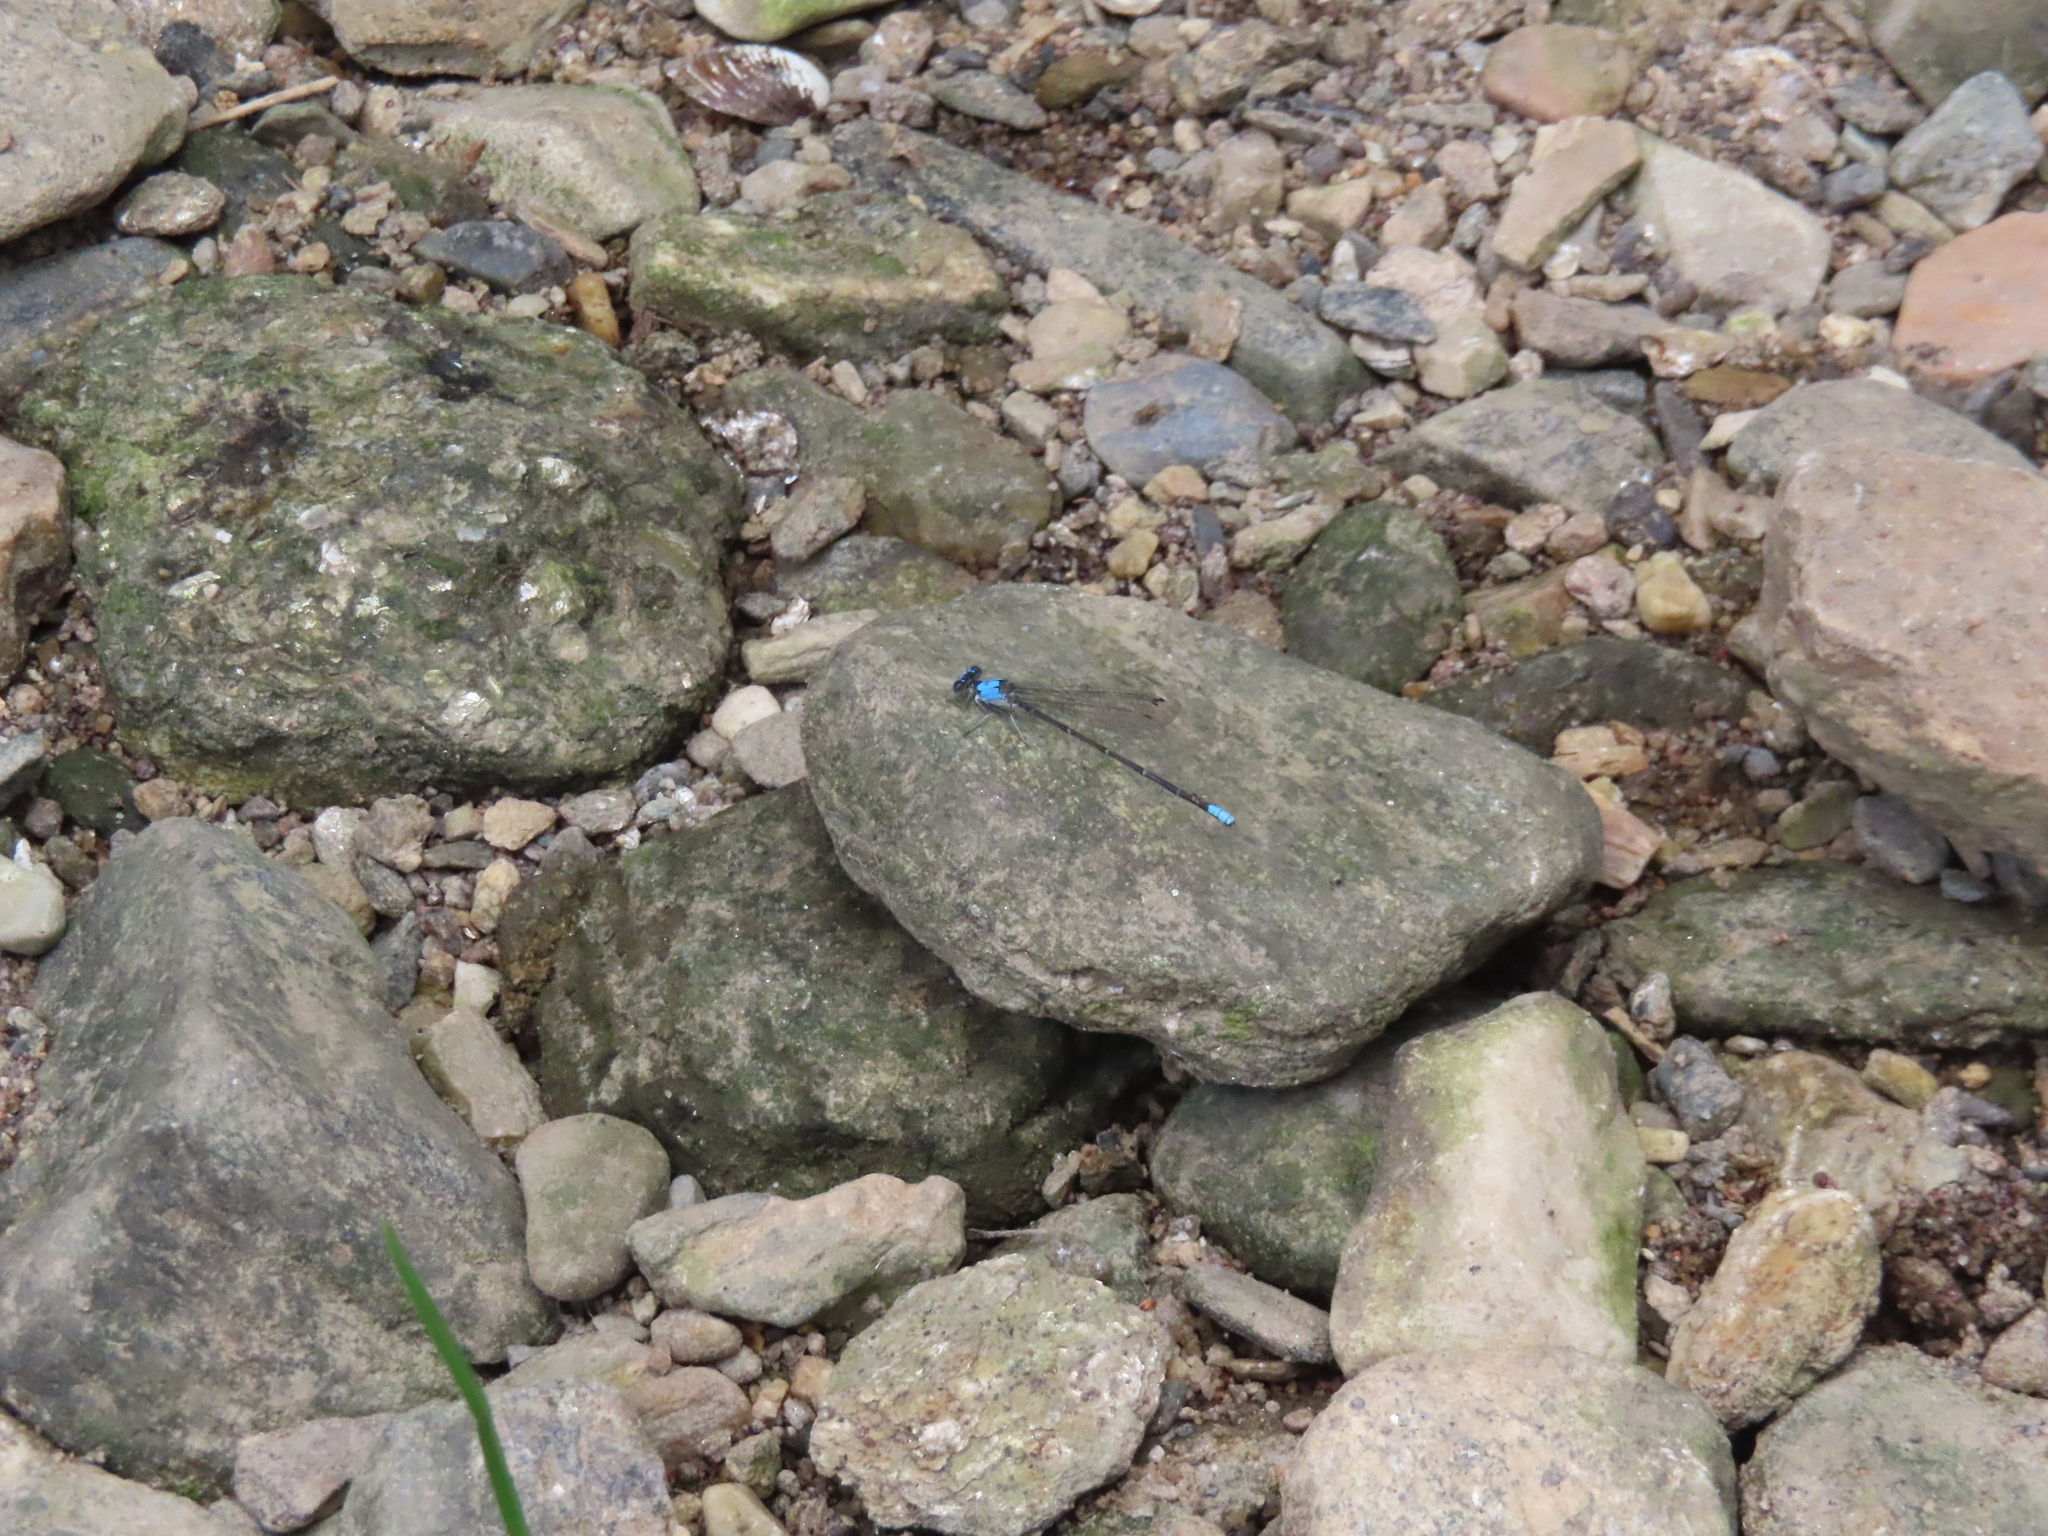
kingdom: Animalia
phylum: Arthropoda
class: Insecta
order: Odonata
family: Coenagrionidae
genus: Argia
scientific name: Argia apicalis
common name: Blue-fronted dancer
